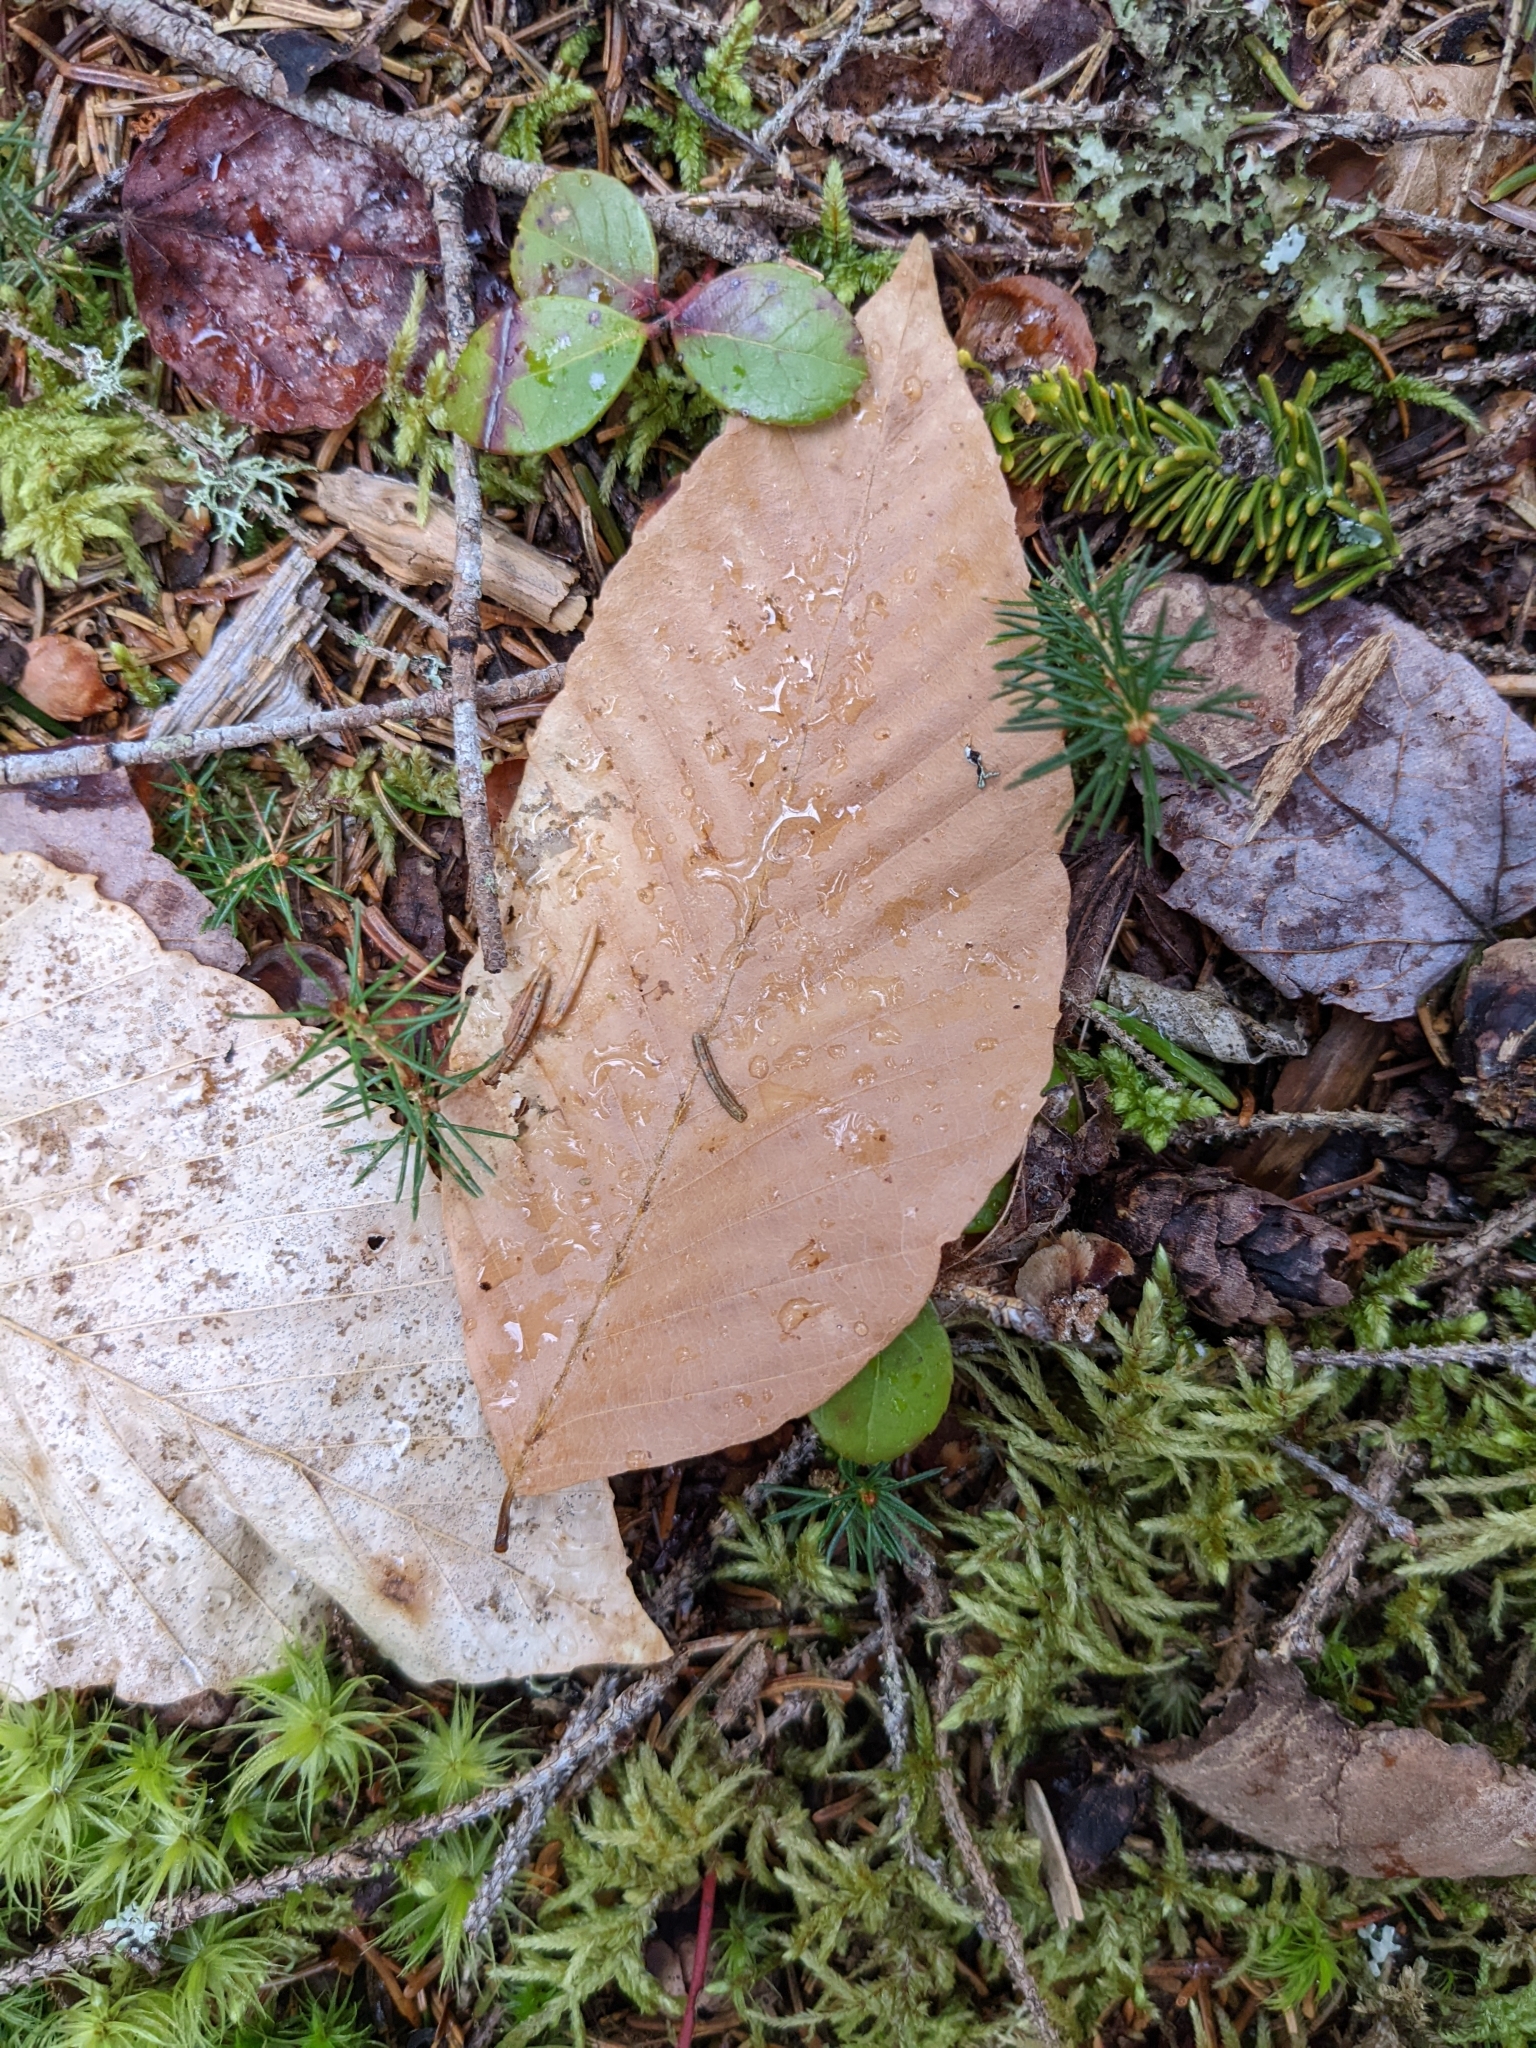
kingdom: Plantae
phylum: Tracheophyta
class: Magnoliopsida
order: Fagales
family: Fagaceae
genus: Fagus
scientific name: Fagus grandifolia
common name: American beech
